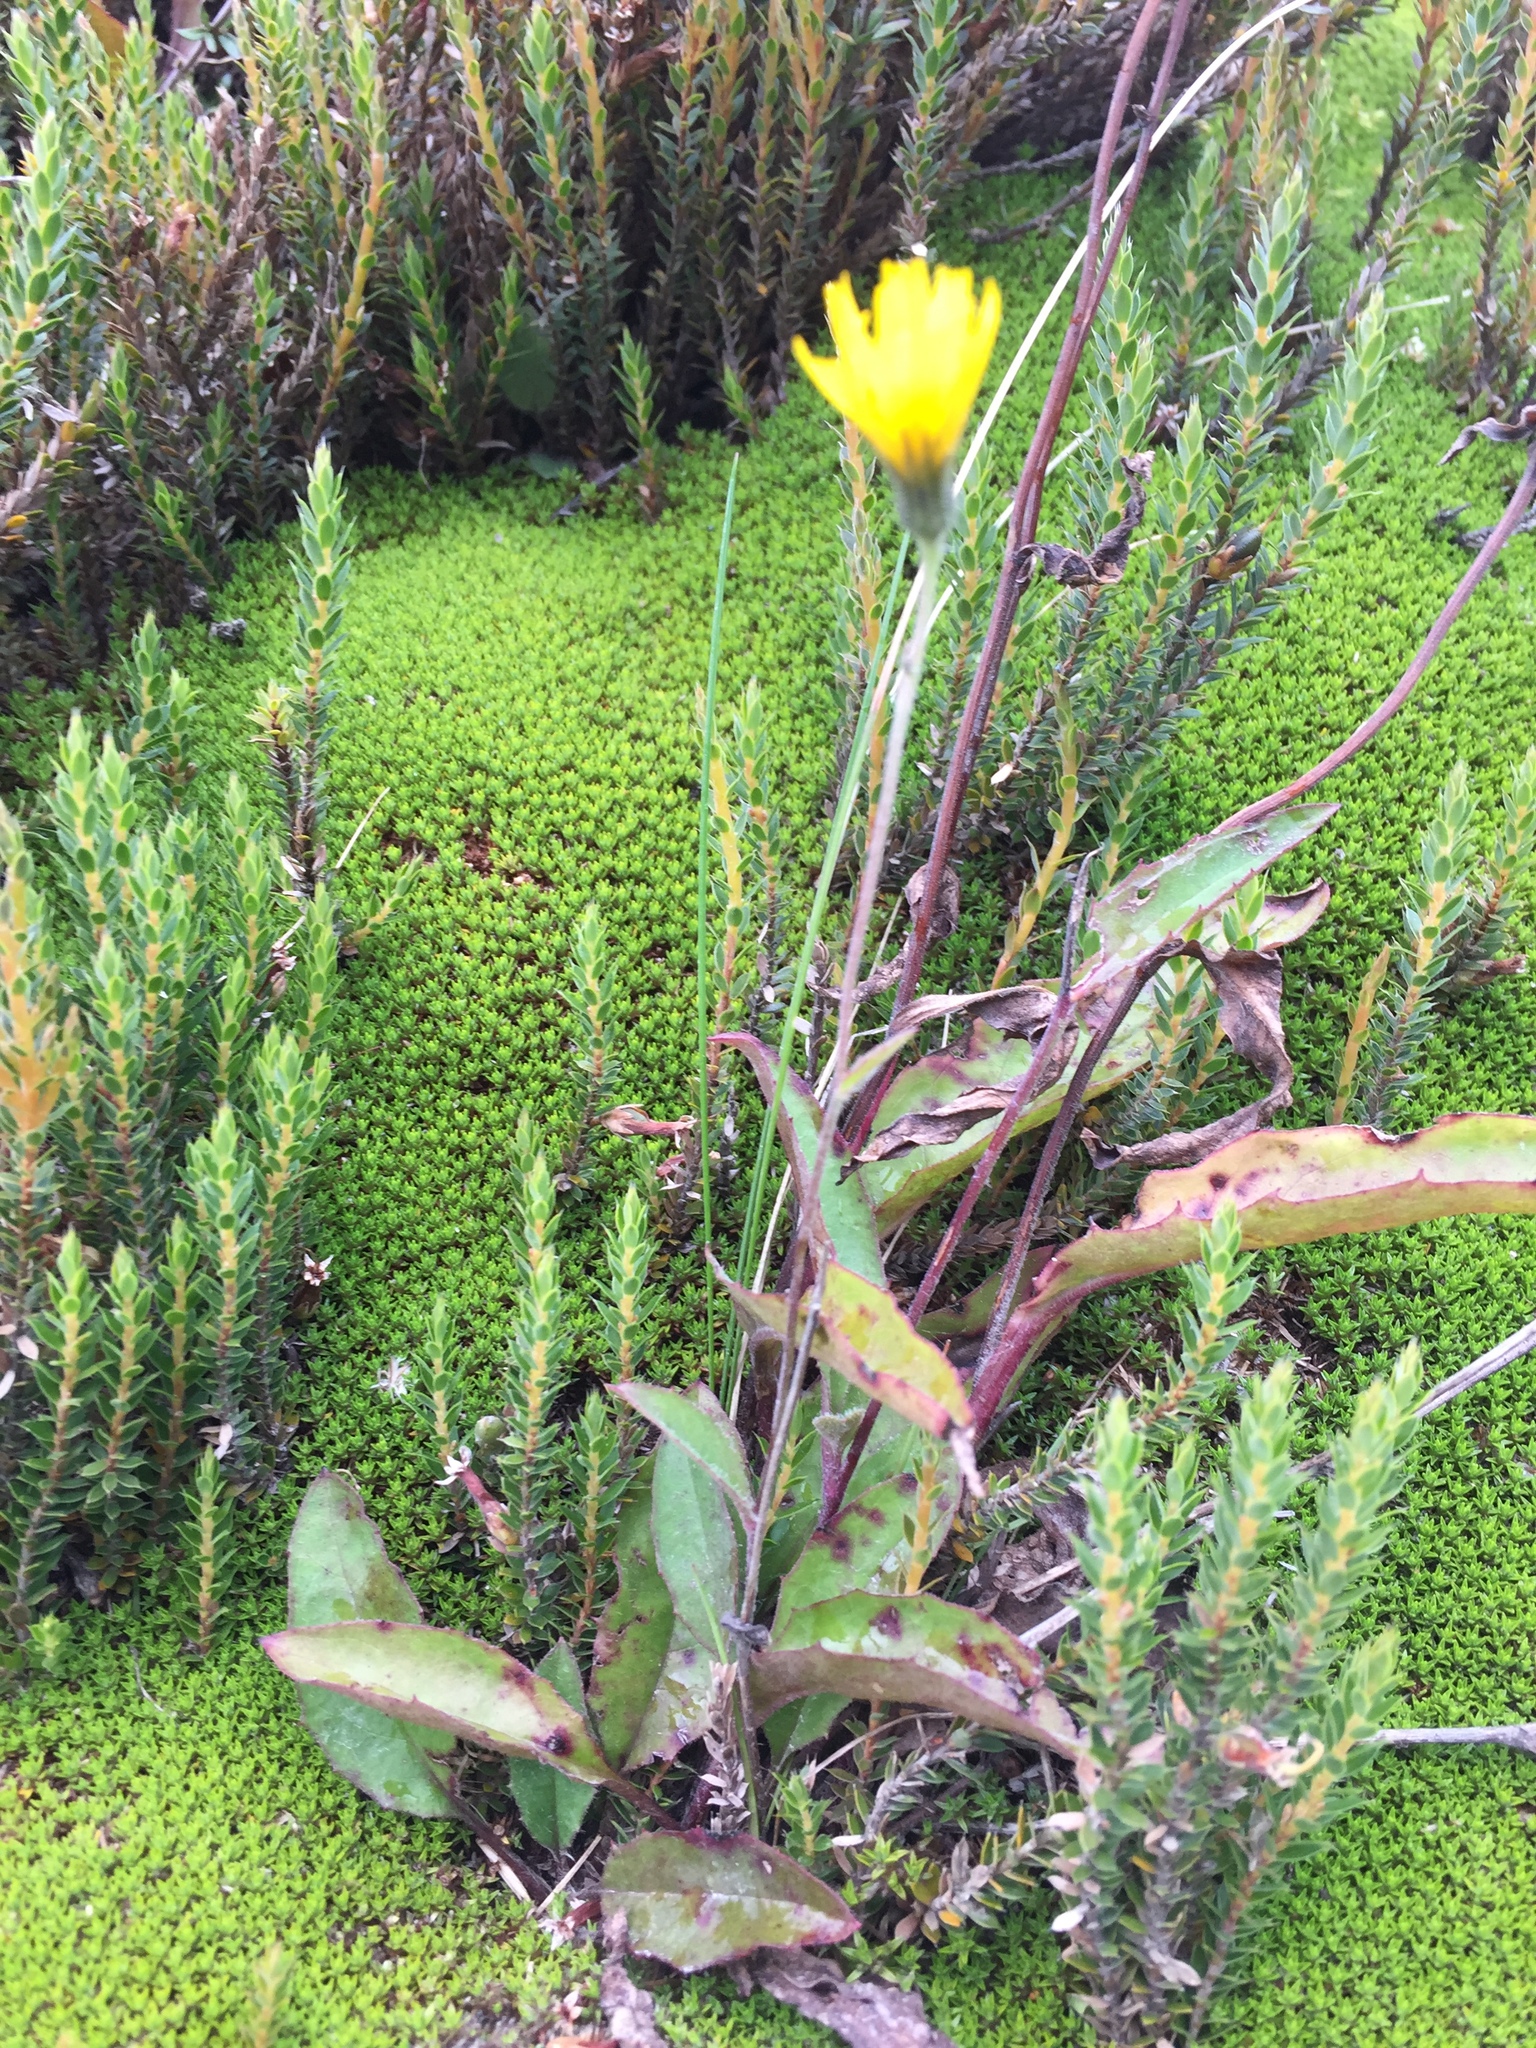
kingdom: Plantae
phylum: Tracheophyta
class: Magnoliopsida
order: Asterales
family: Asteraceae
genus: Hieracium
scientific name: Hieracium lepidulum
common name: Irregular-toothed hawkweed
